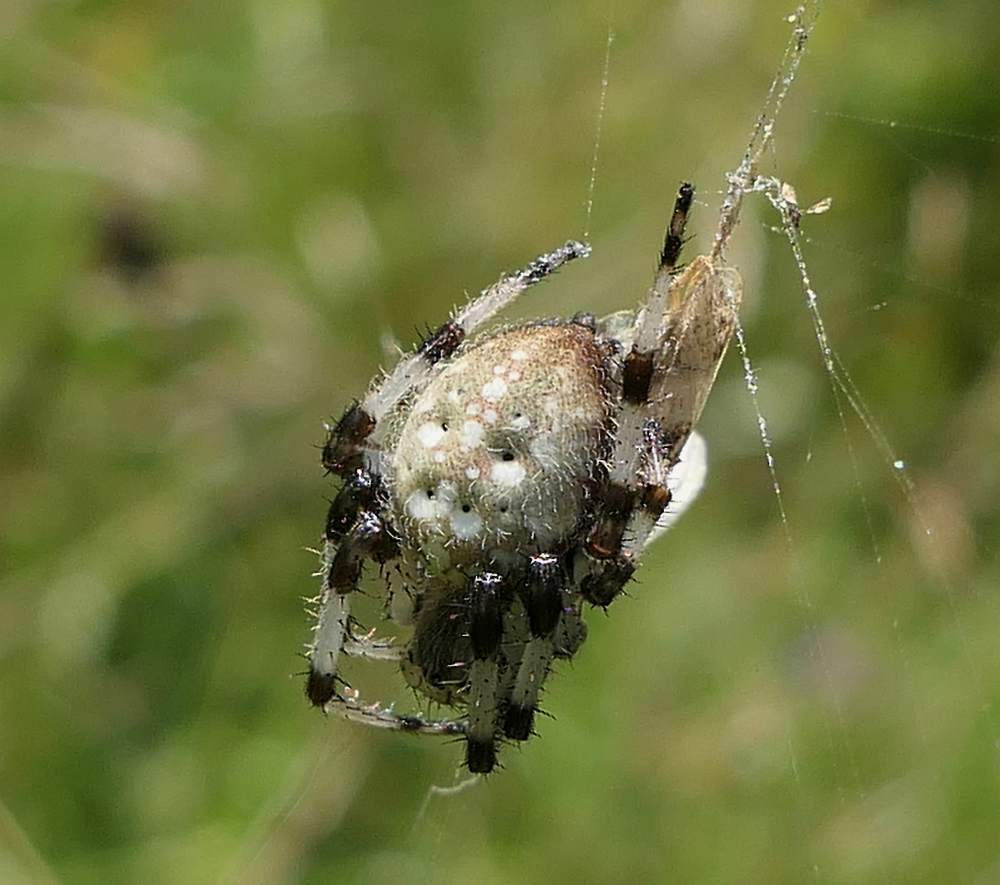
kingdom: Animalia
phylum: Arthropoda
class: Arachnida
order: Araneae
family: Araneidae
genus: Araneus
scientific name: Araneus trifolium
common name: Shamrock orbweaver
